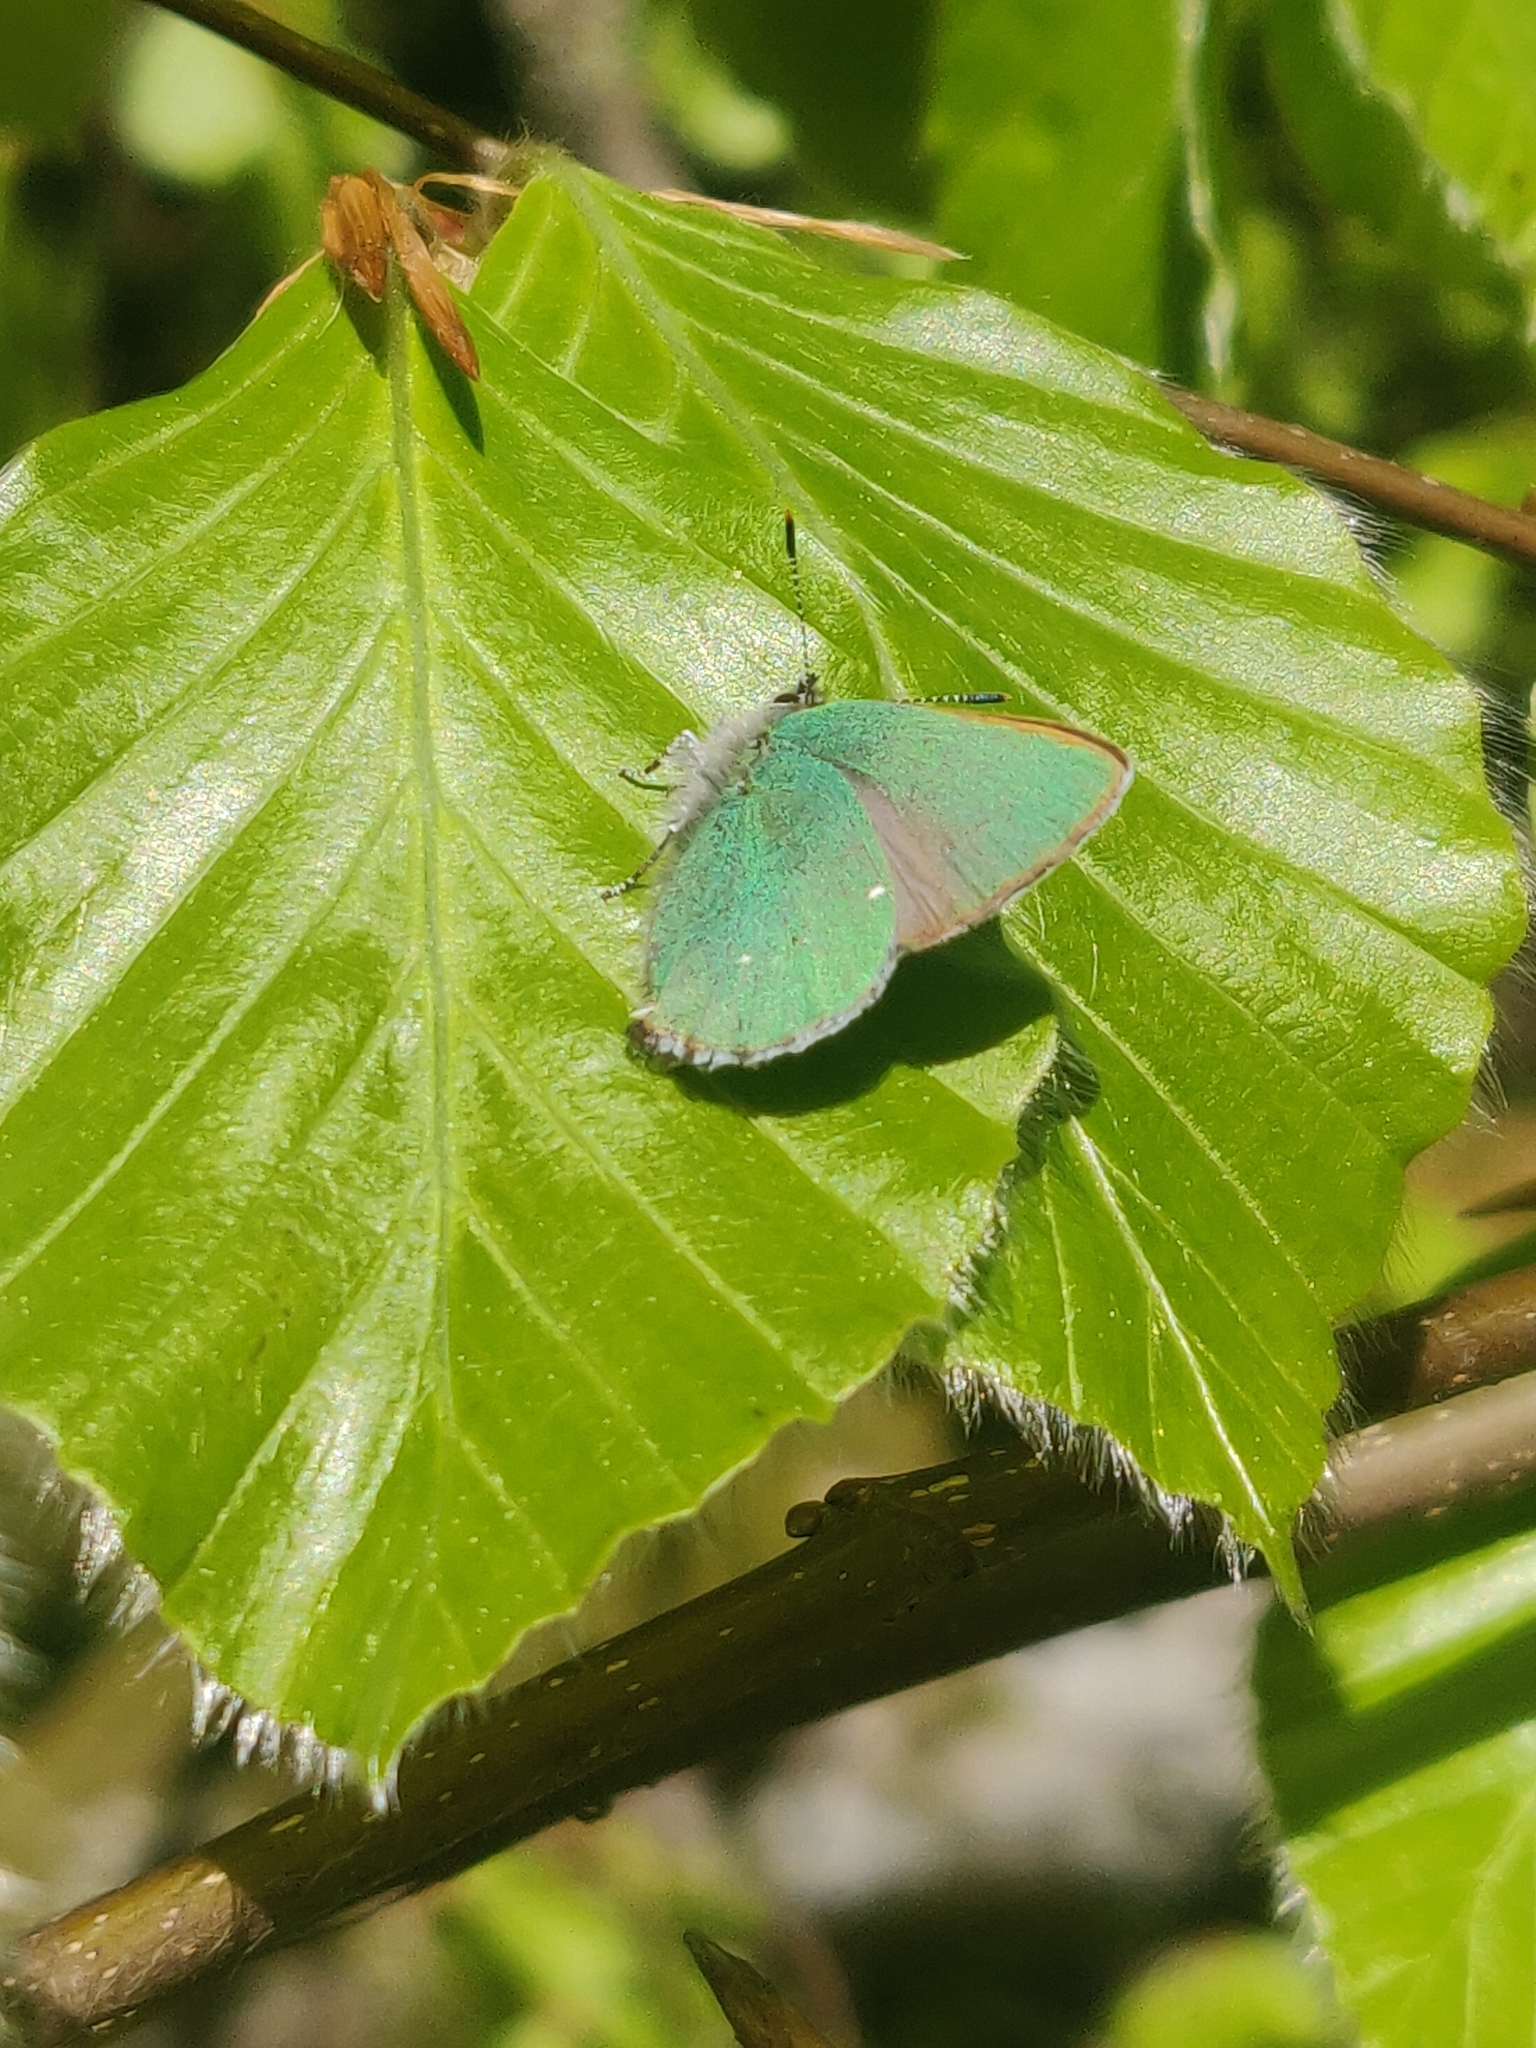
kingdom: Animalia
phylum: Arthropoda
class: Insecta
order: Lepidoptera
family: Lycaenidae
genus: Callophrys
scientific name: Callophrys rubi
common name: Green hairstreak
